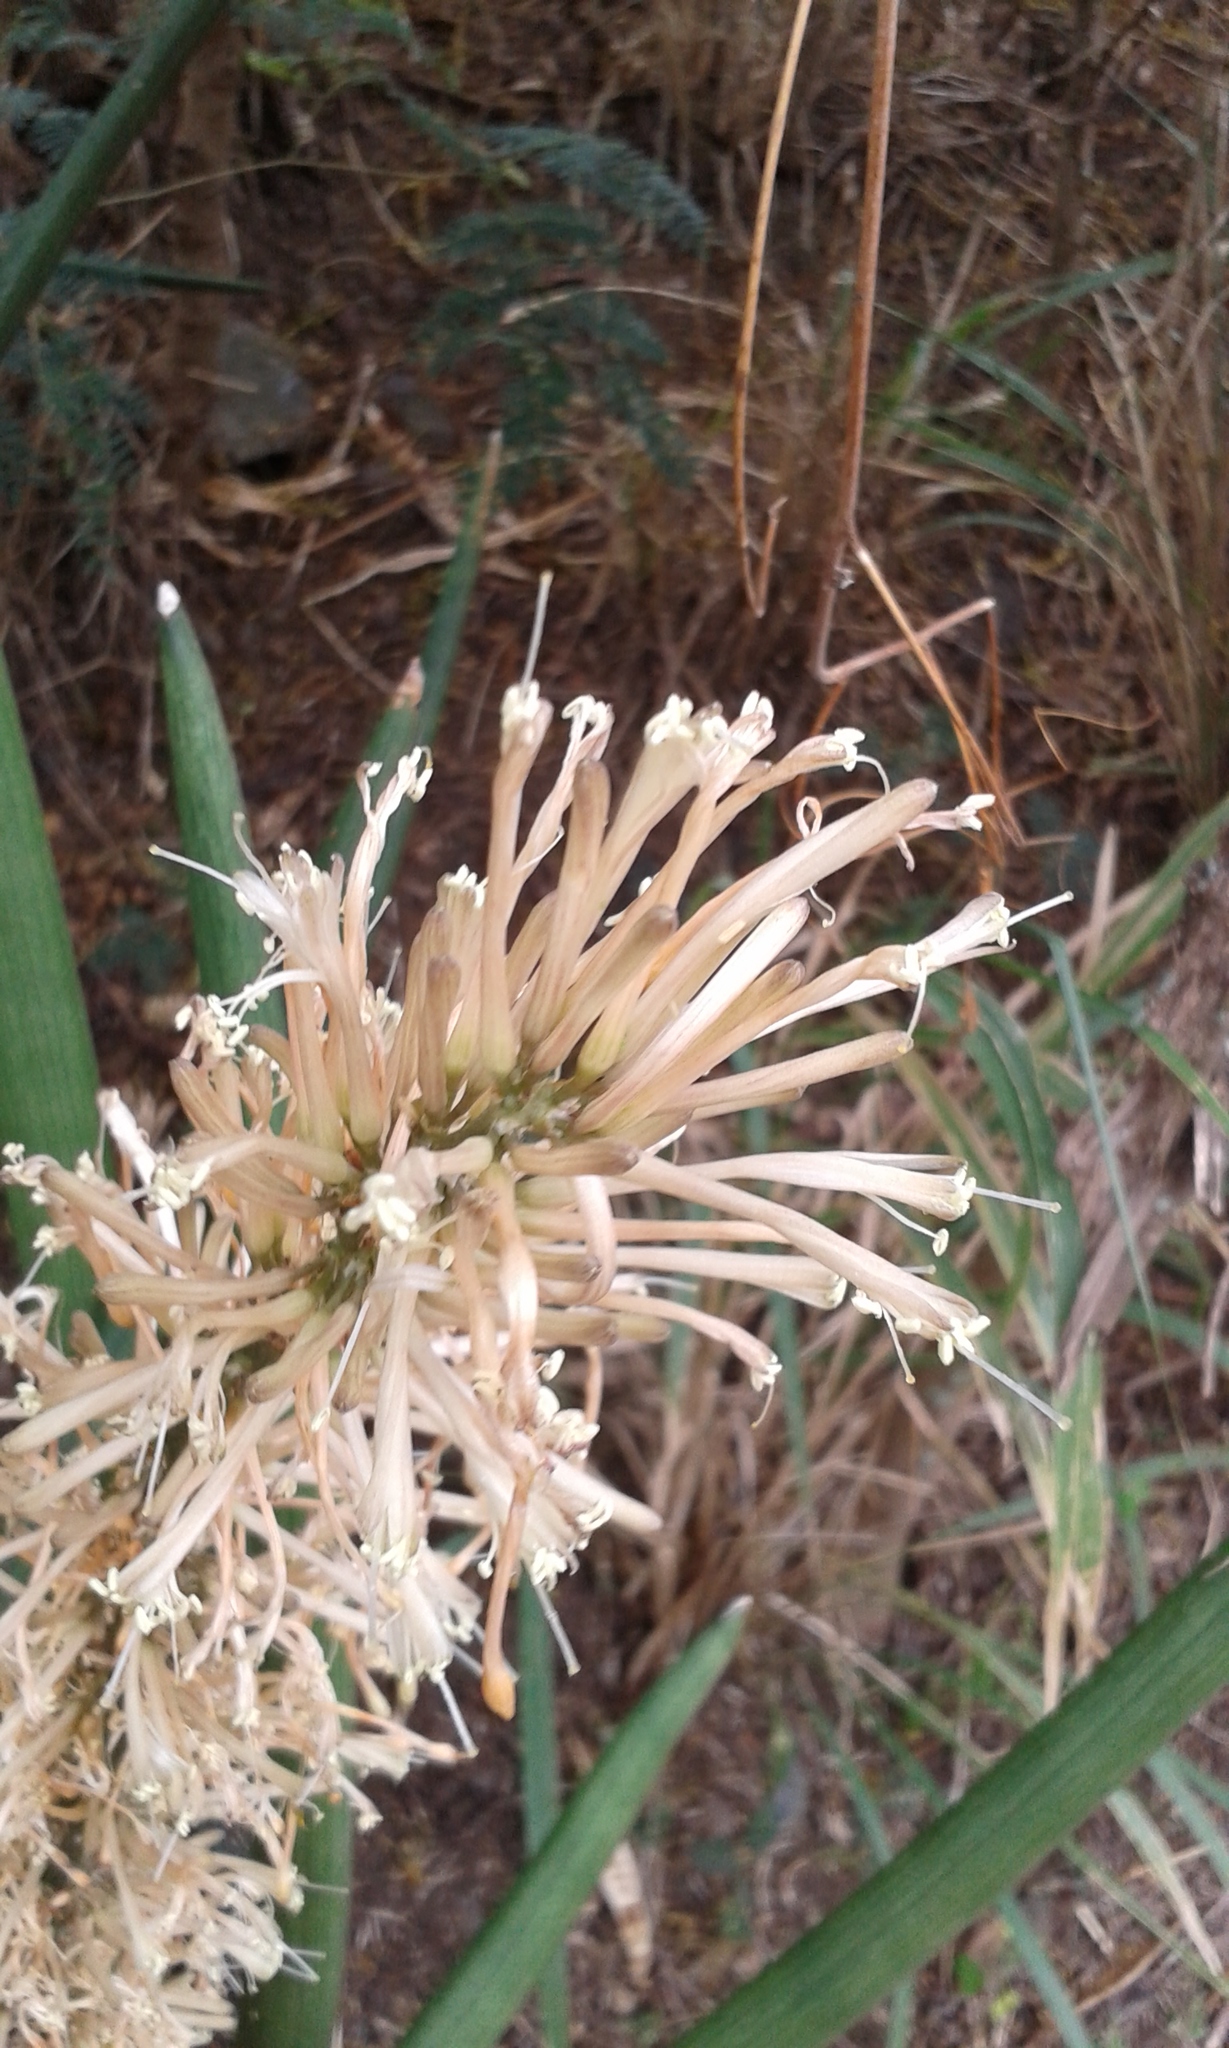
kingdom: Plantae
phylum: Tracheophyta
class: Liliopsida
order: Asparagales
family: Asparagaceae
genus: Dracaena
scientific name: Dracaena angolensis
